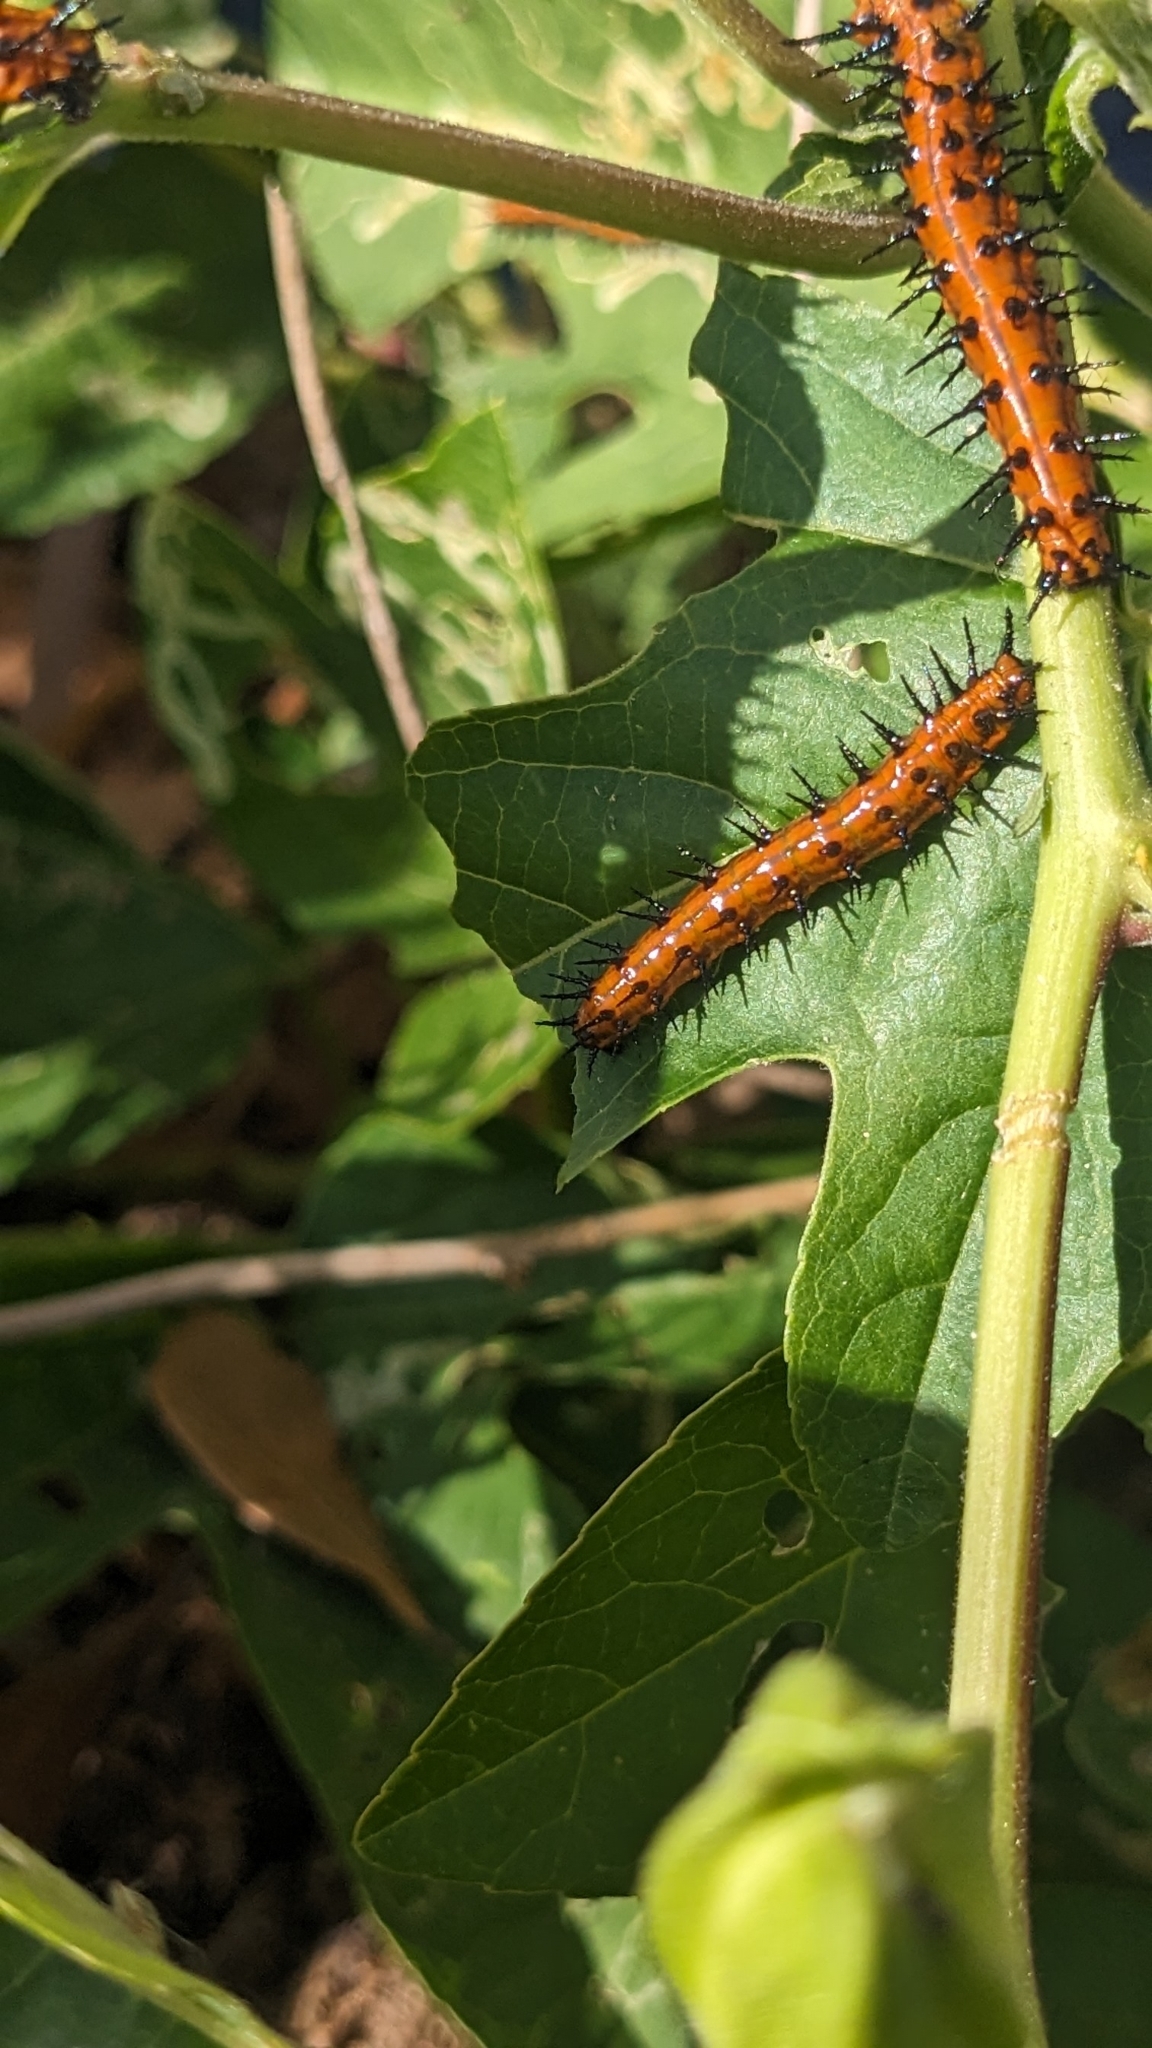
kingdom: Animalia
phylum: Arthropoda
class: Insecta
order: Lepidoptera
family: Nymphalidae
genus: Dione
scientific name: Dione vanillae
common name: Gulf fritillary
